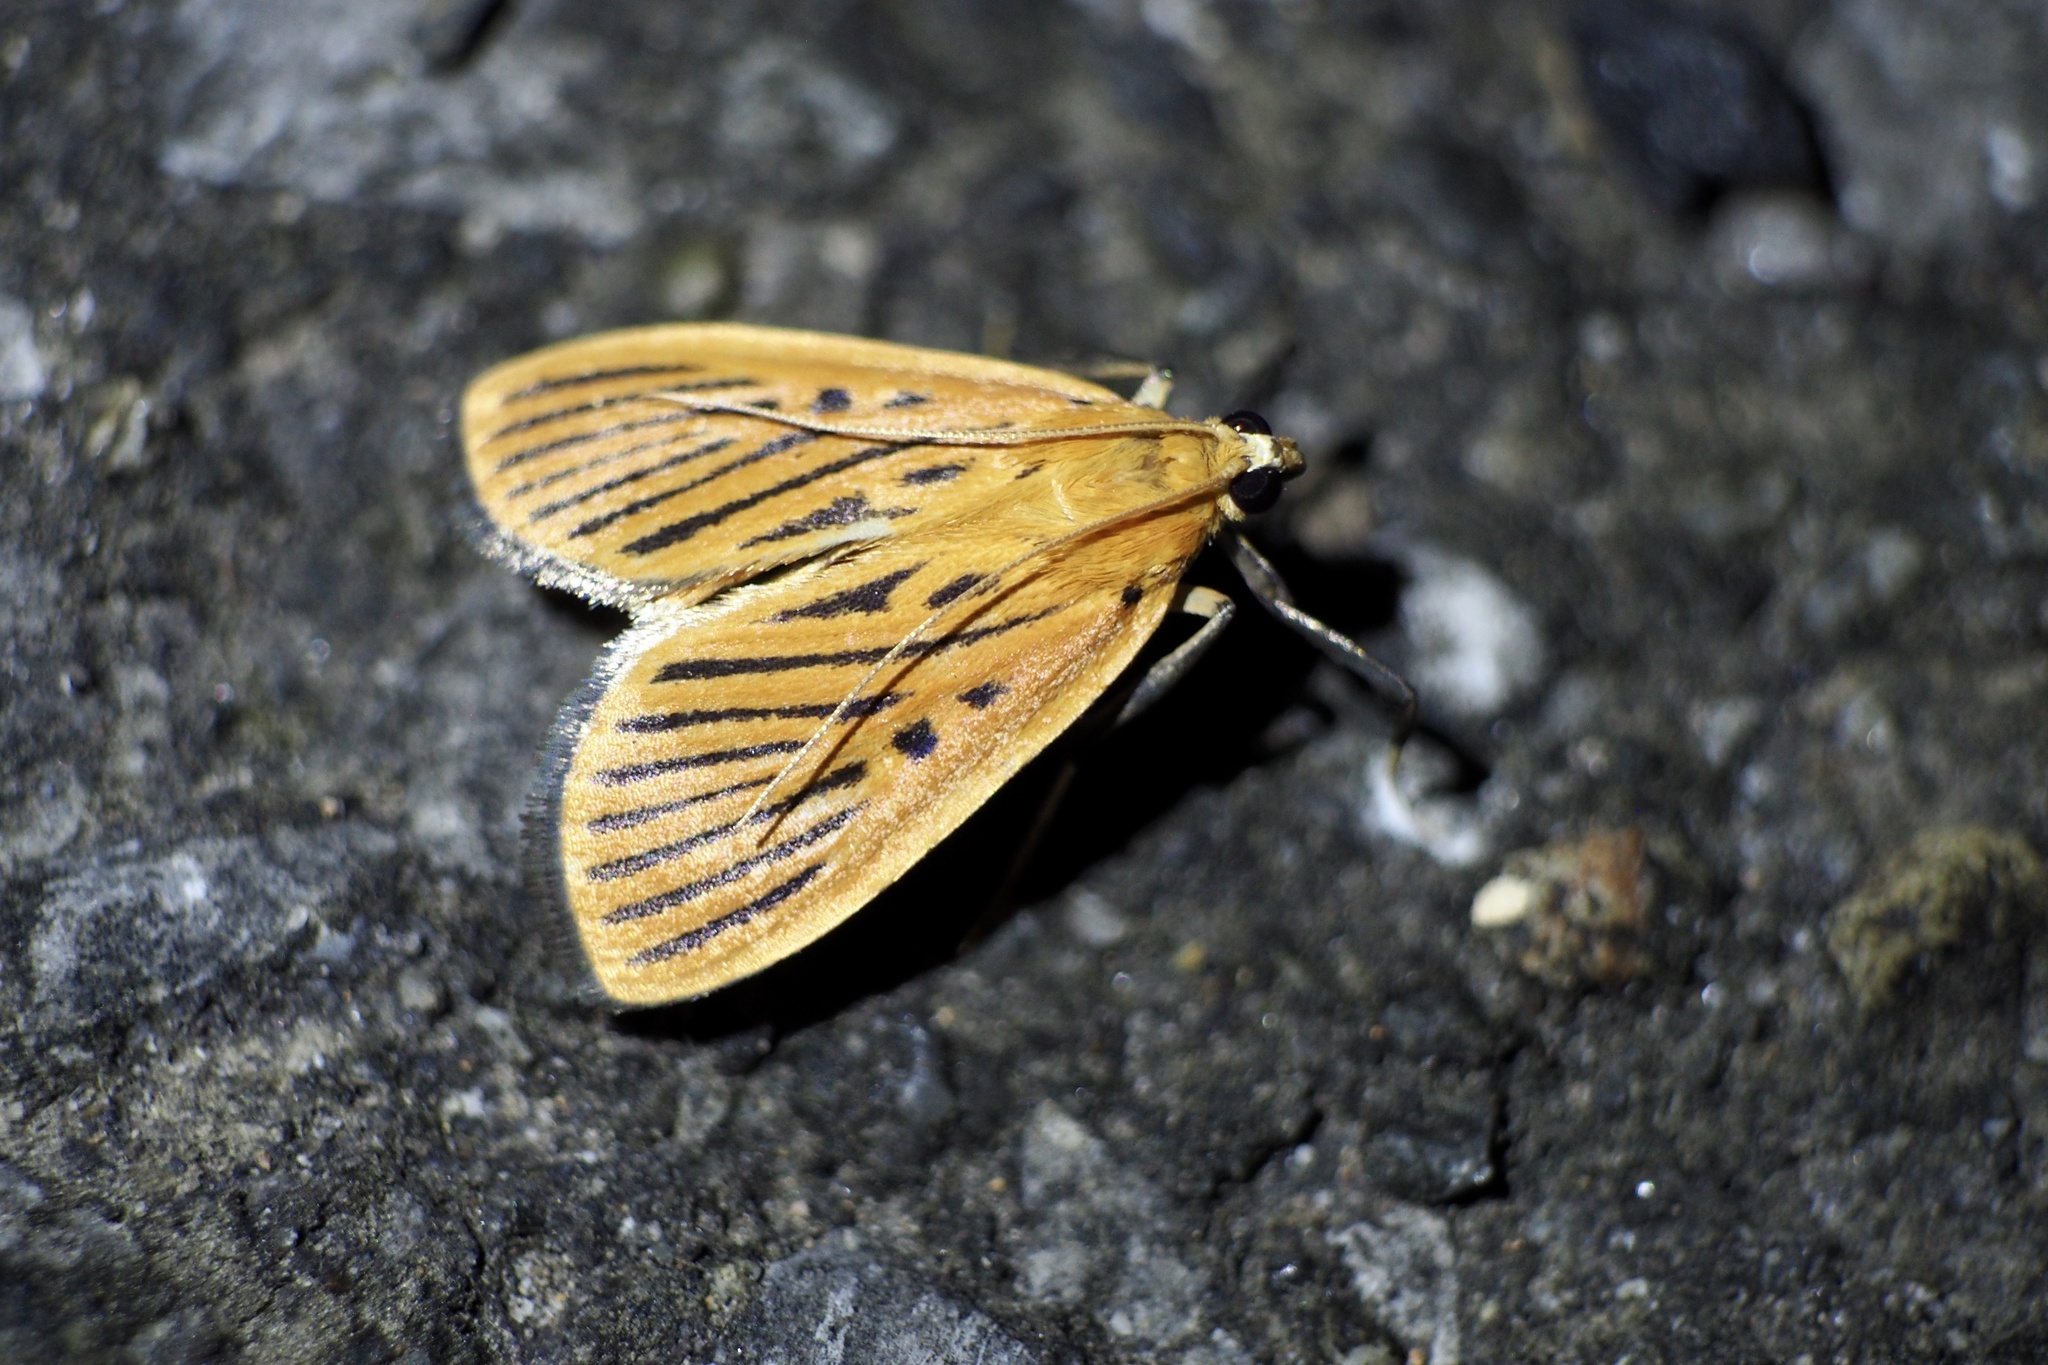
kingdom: Animalia
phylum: Arthropoda
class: Insecta
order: Lepidoptera
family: Crambidae
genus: Tyspanodes
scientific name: Tyspanodes striata
